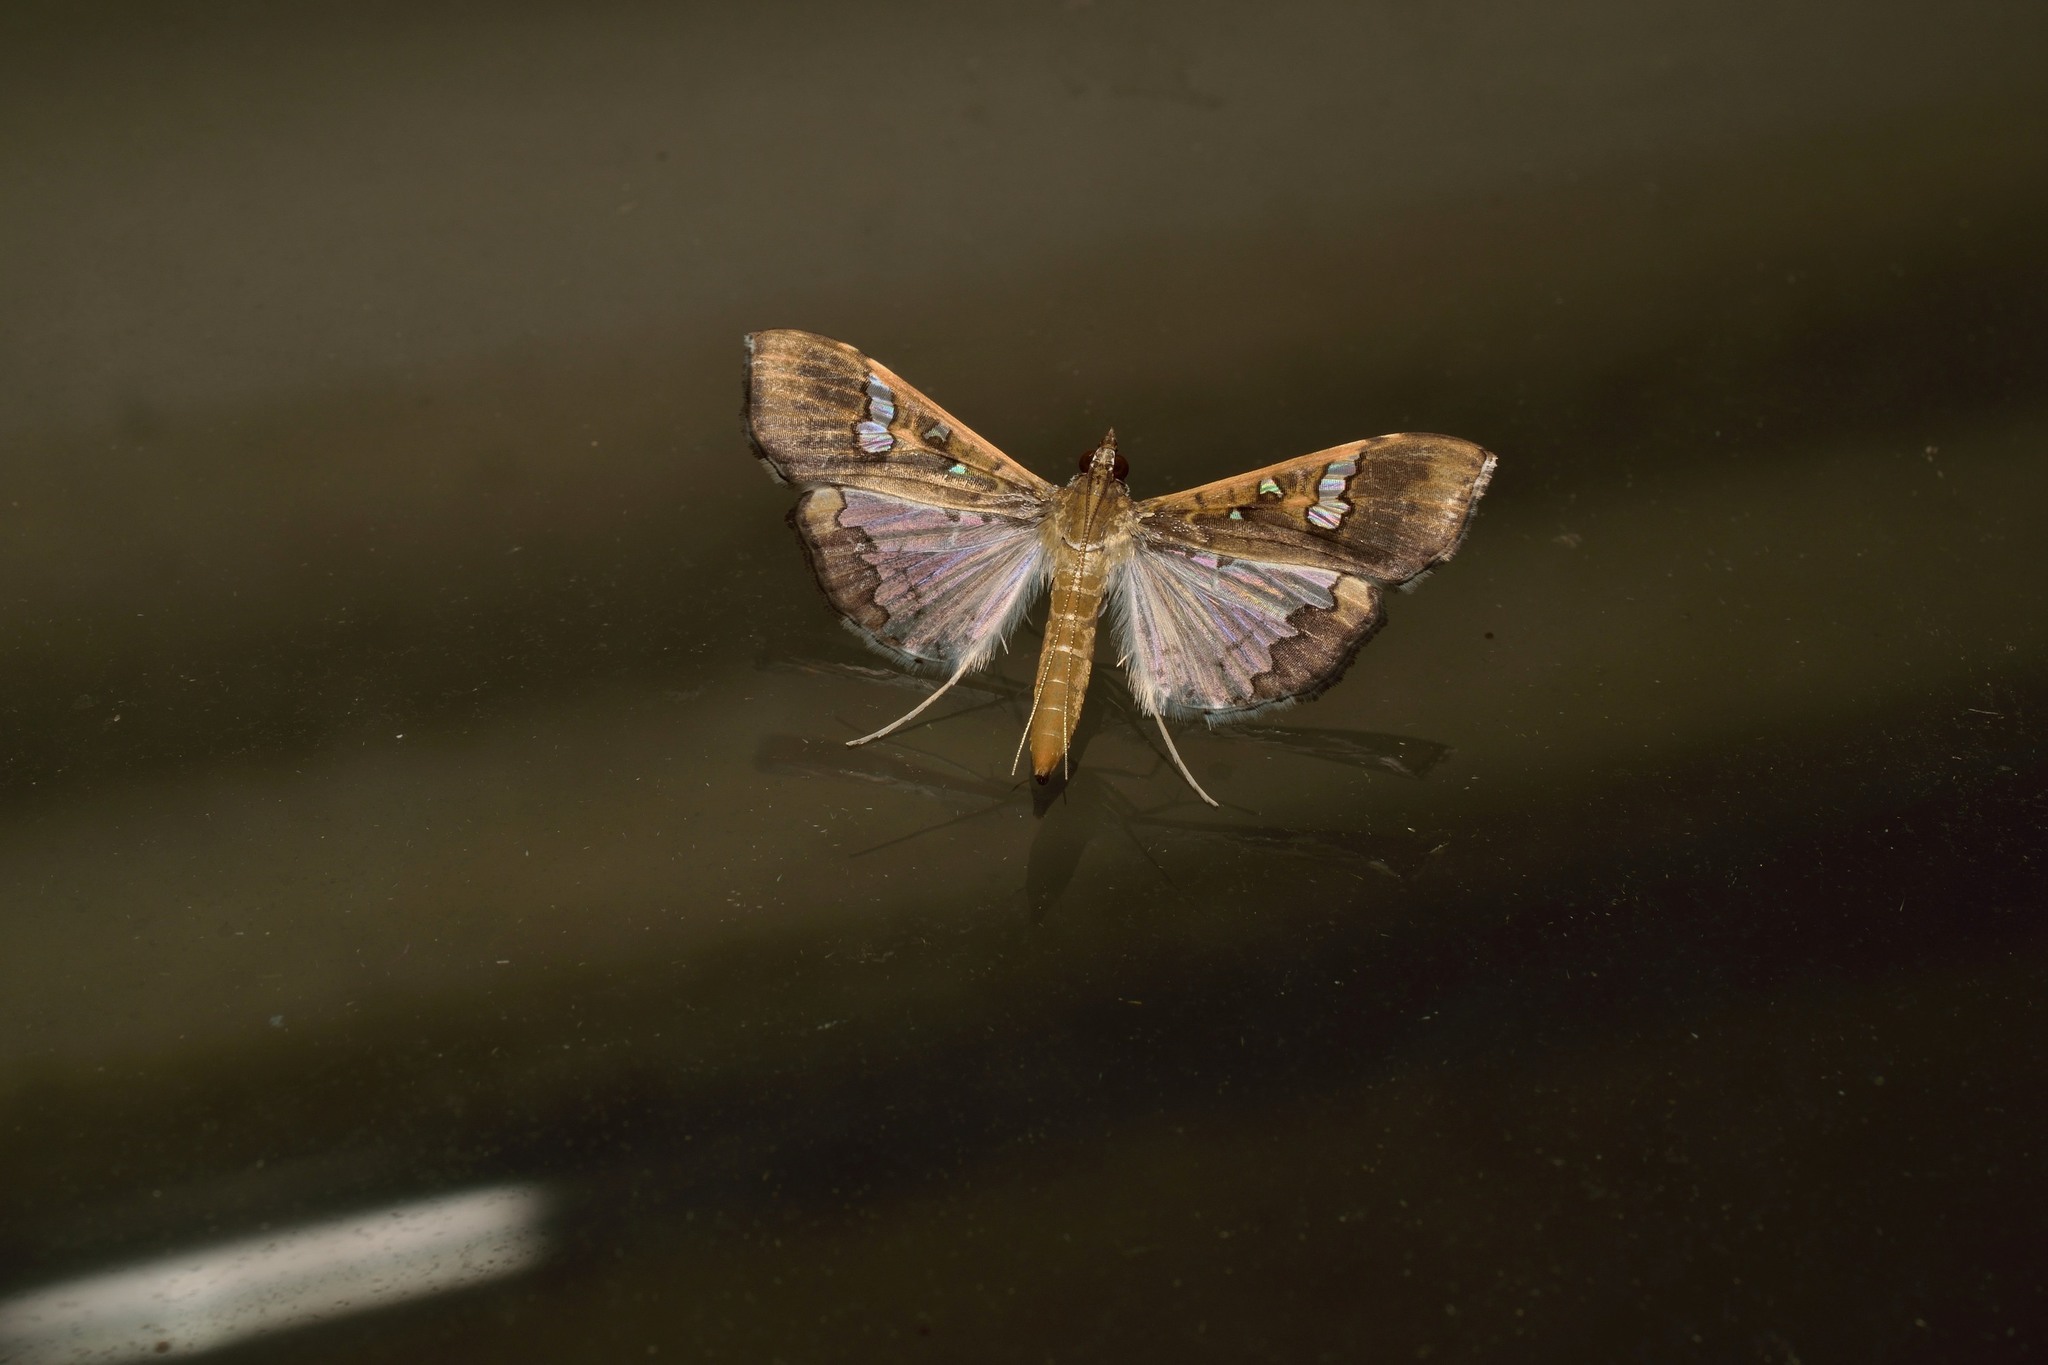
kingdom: Animalia
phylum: Arthropoda
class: Insecta
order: Lepidoptera
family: Crambidae
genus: Maruca
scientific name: Maruca vitrata
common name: Maruca pod borer
